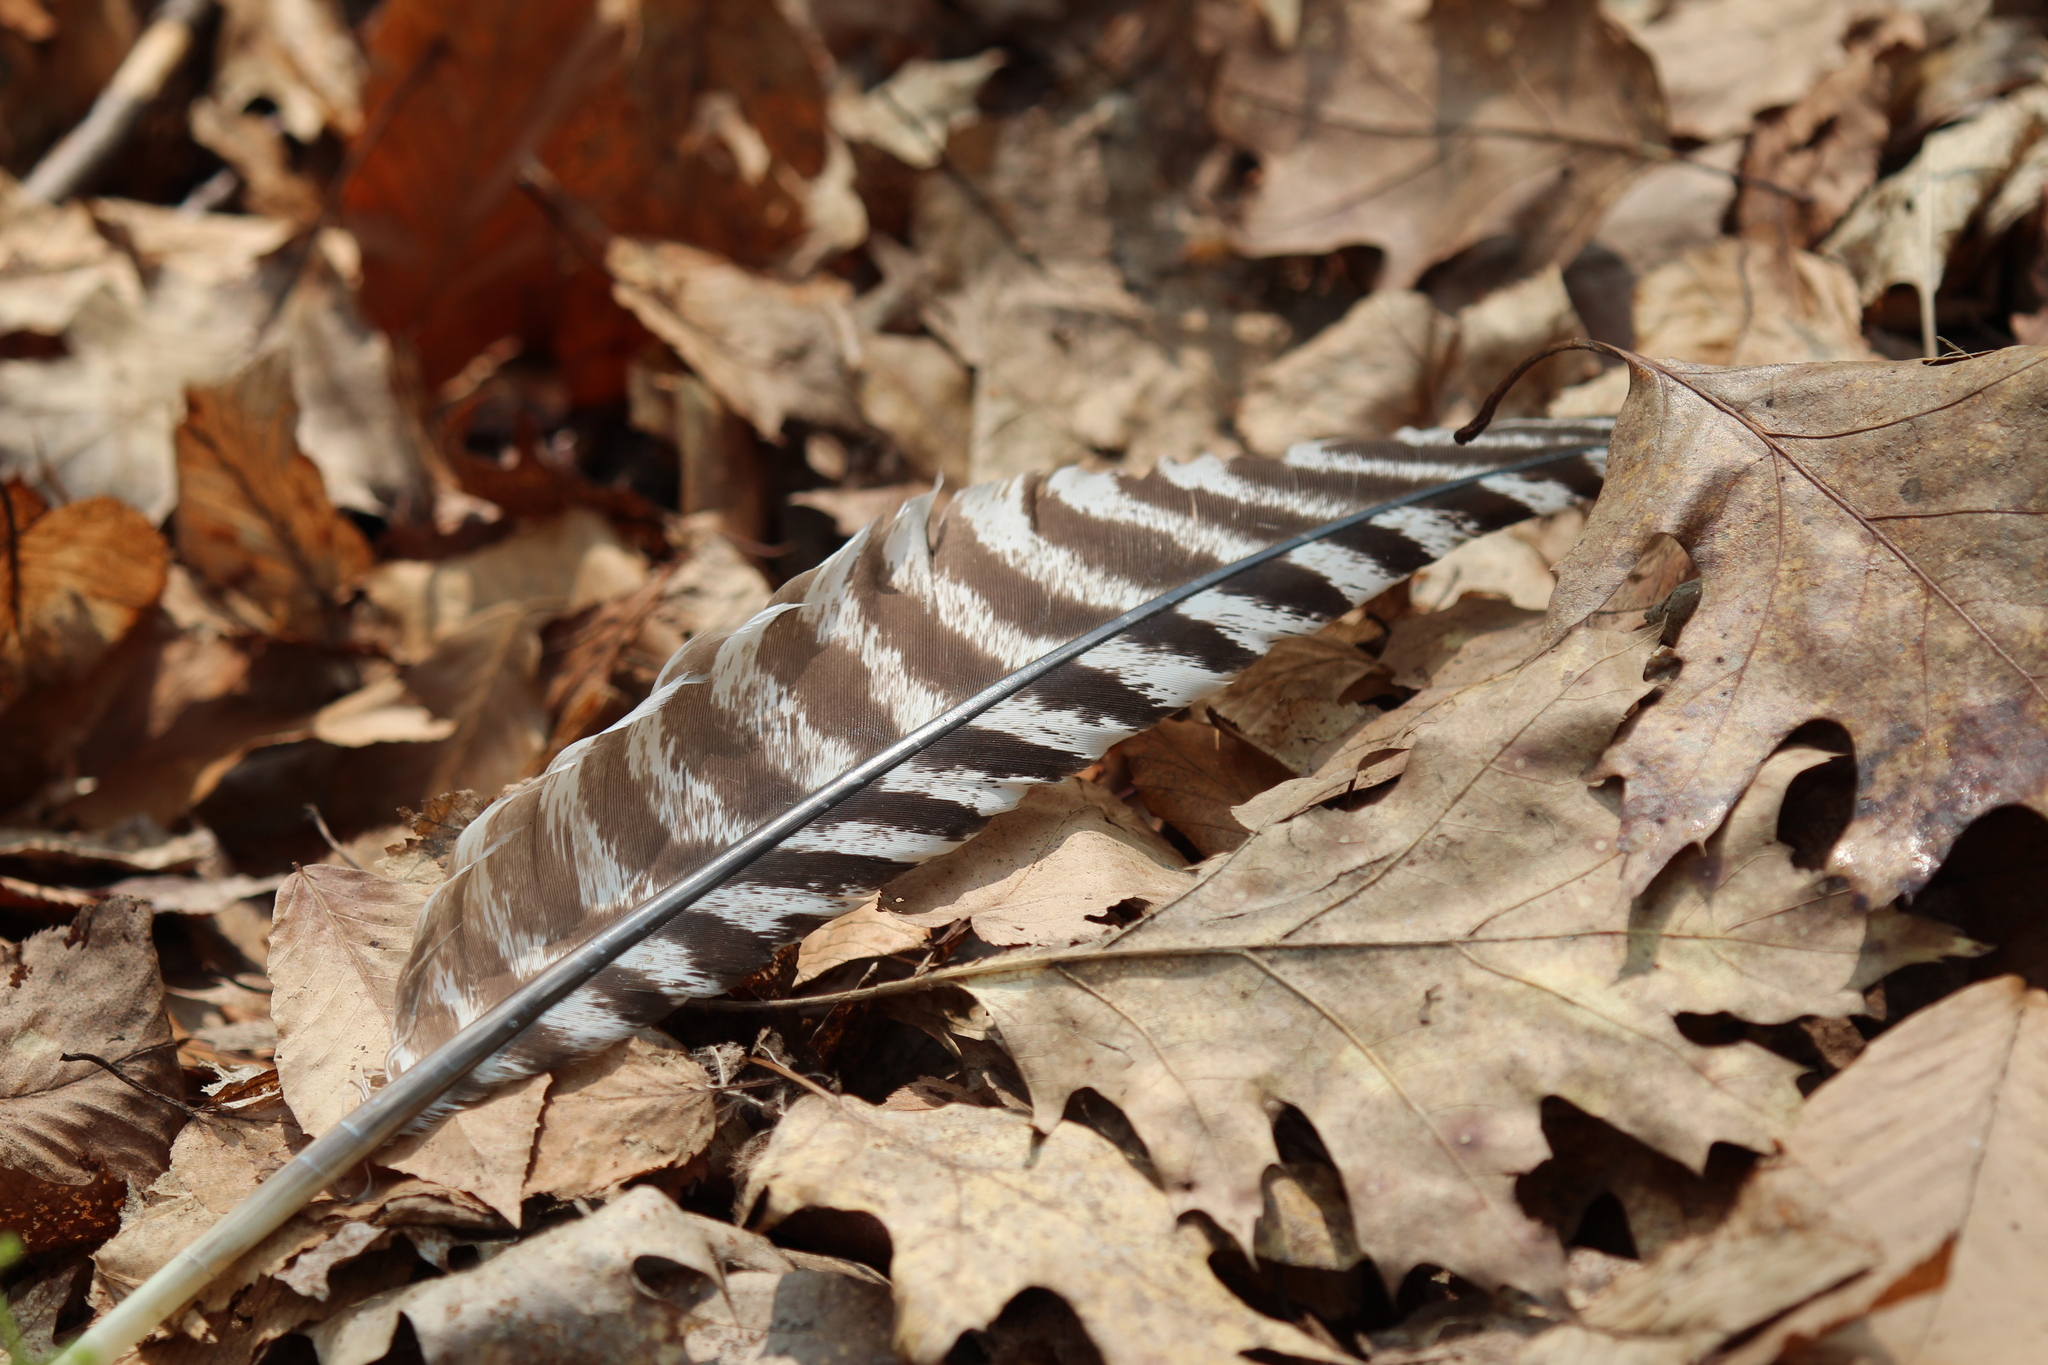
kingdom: Animalia
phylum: Chordata
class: Aves
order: Galliformes
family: Phasianidae
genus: Meleagris
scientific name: Meleagris gallopavo
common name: Wild turkey
